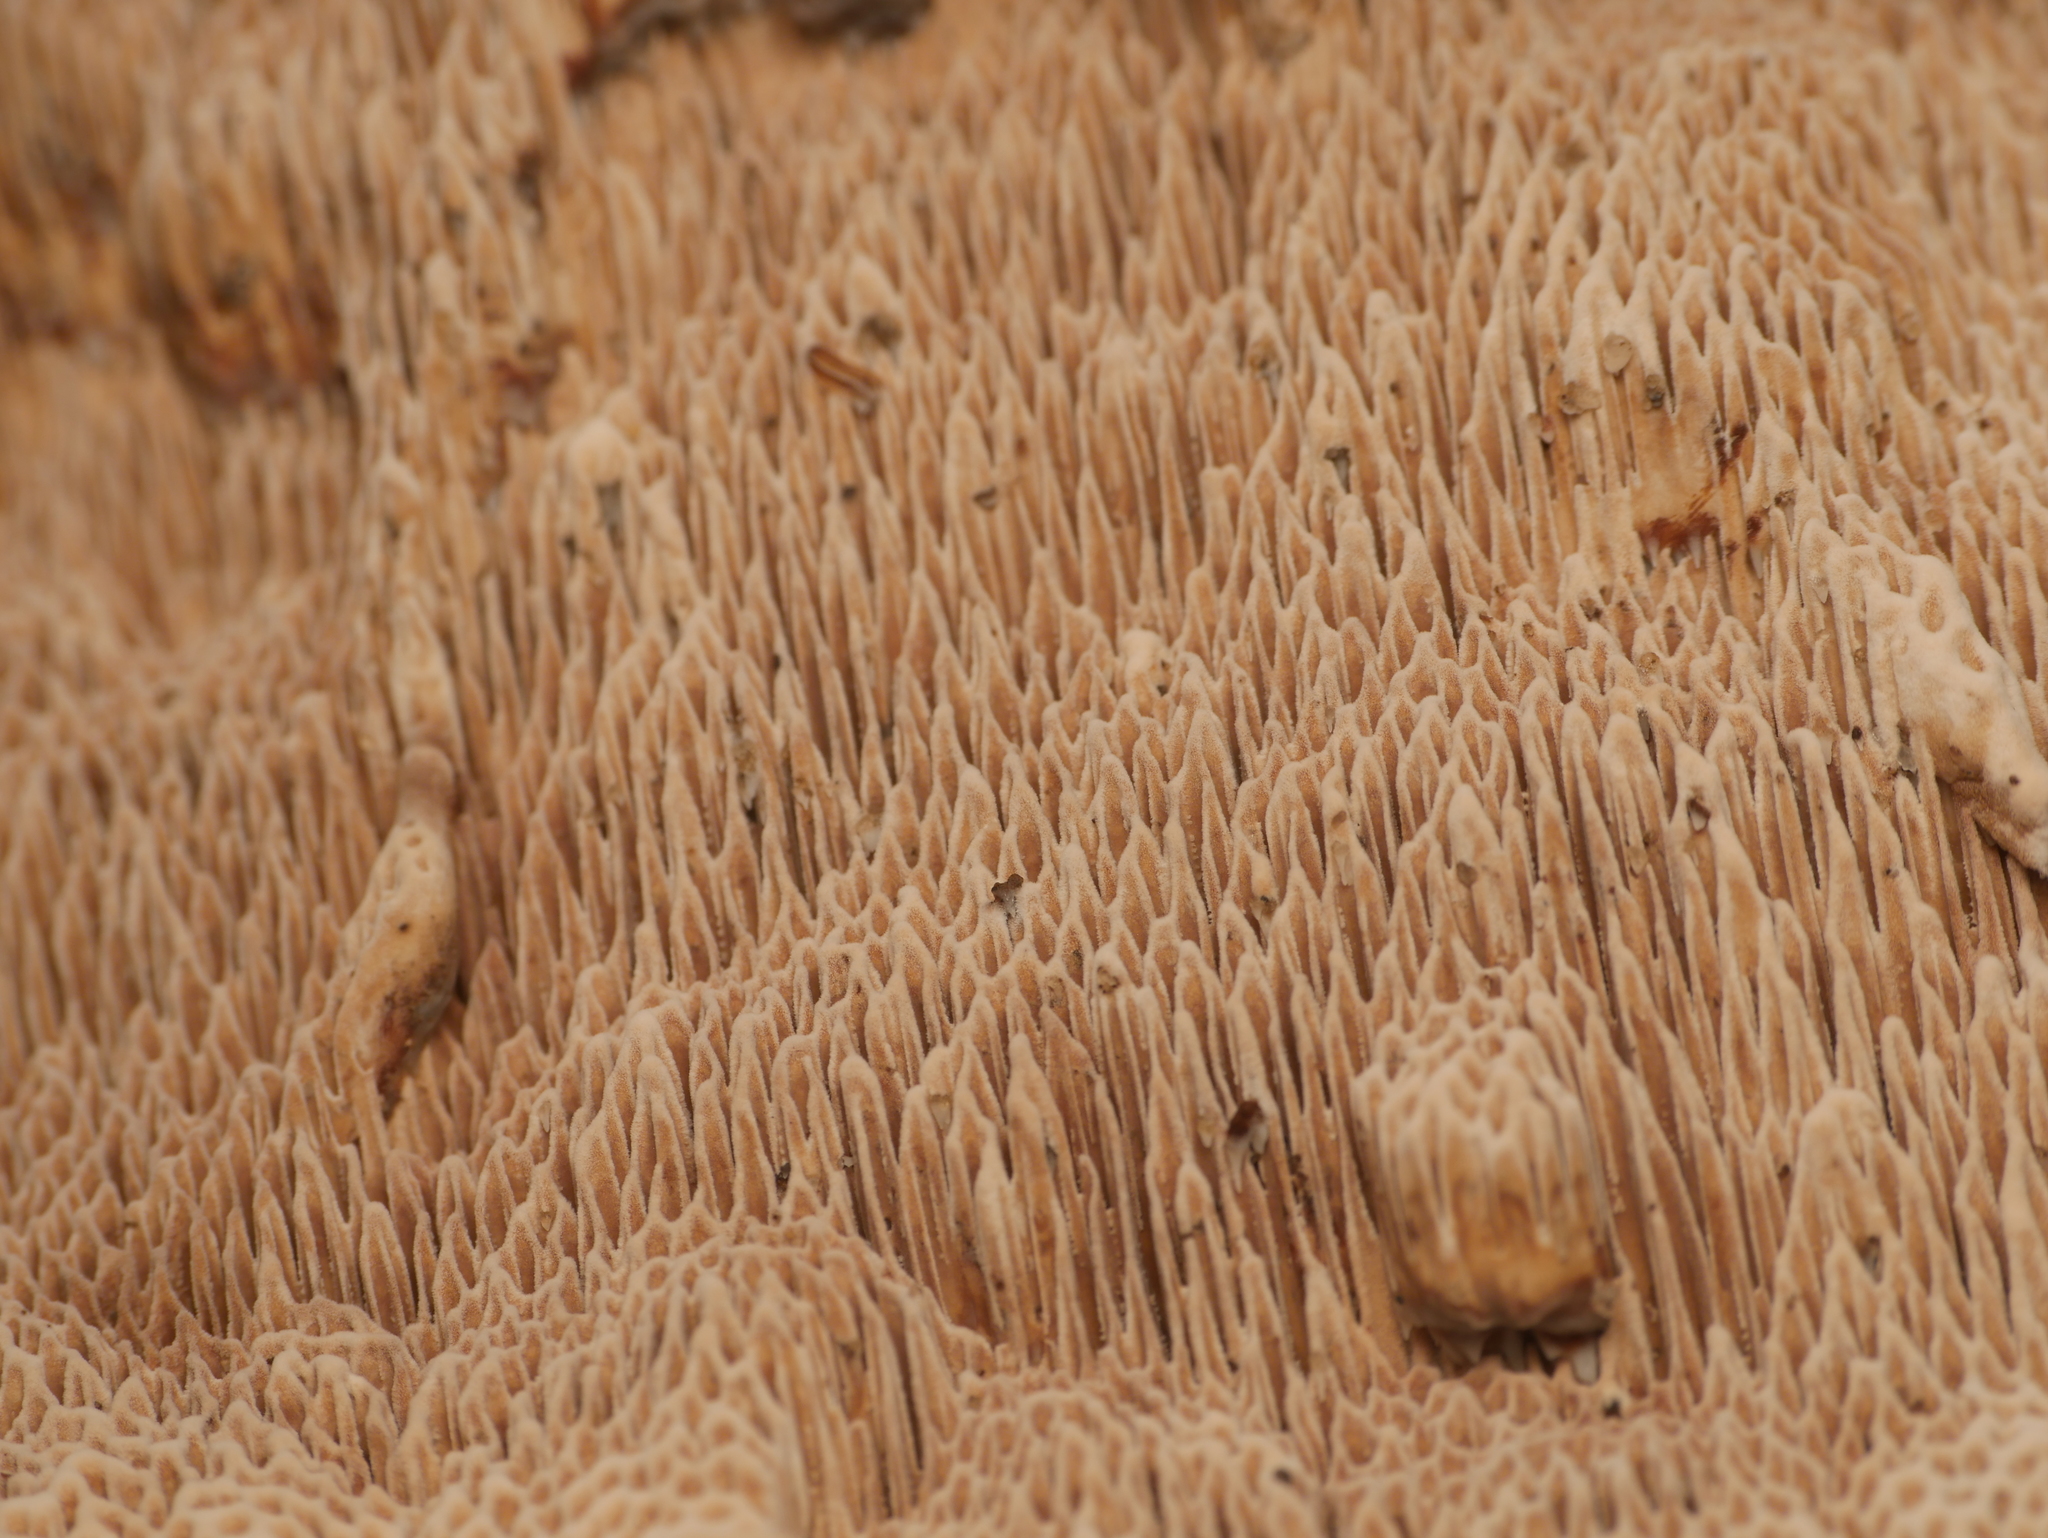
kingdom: Fungi
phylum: Basidiomycota
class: Agaricomycetes
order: Polyporales
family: Polyporaceae
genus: Podofomes
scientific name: Podofomes mollis
